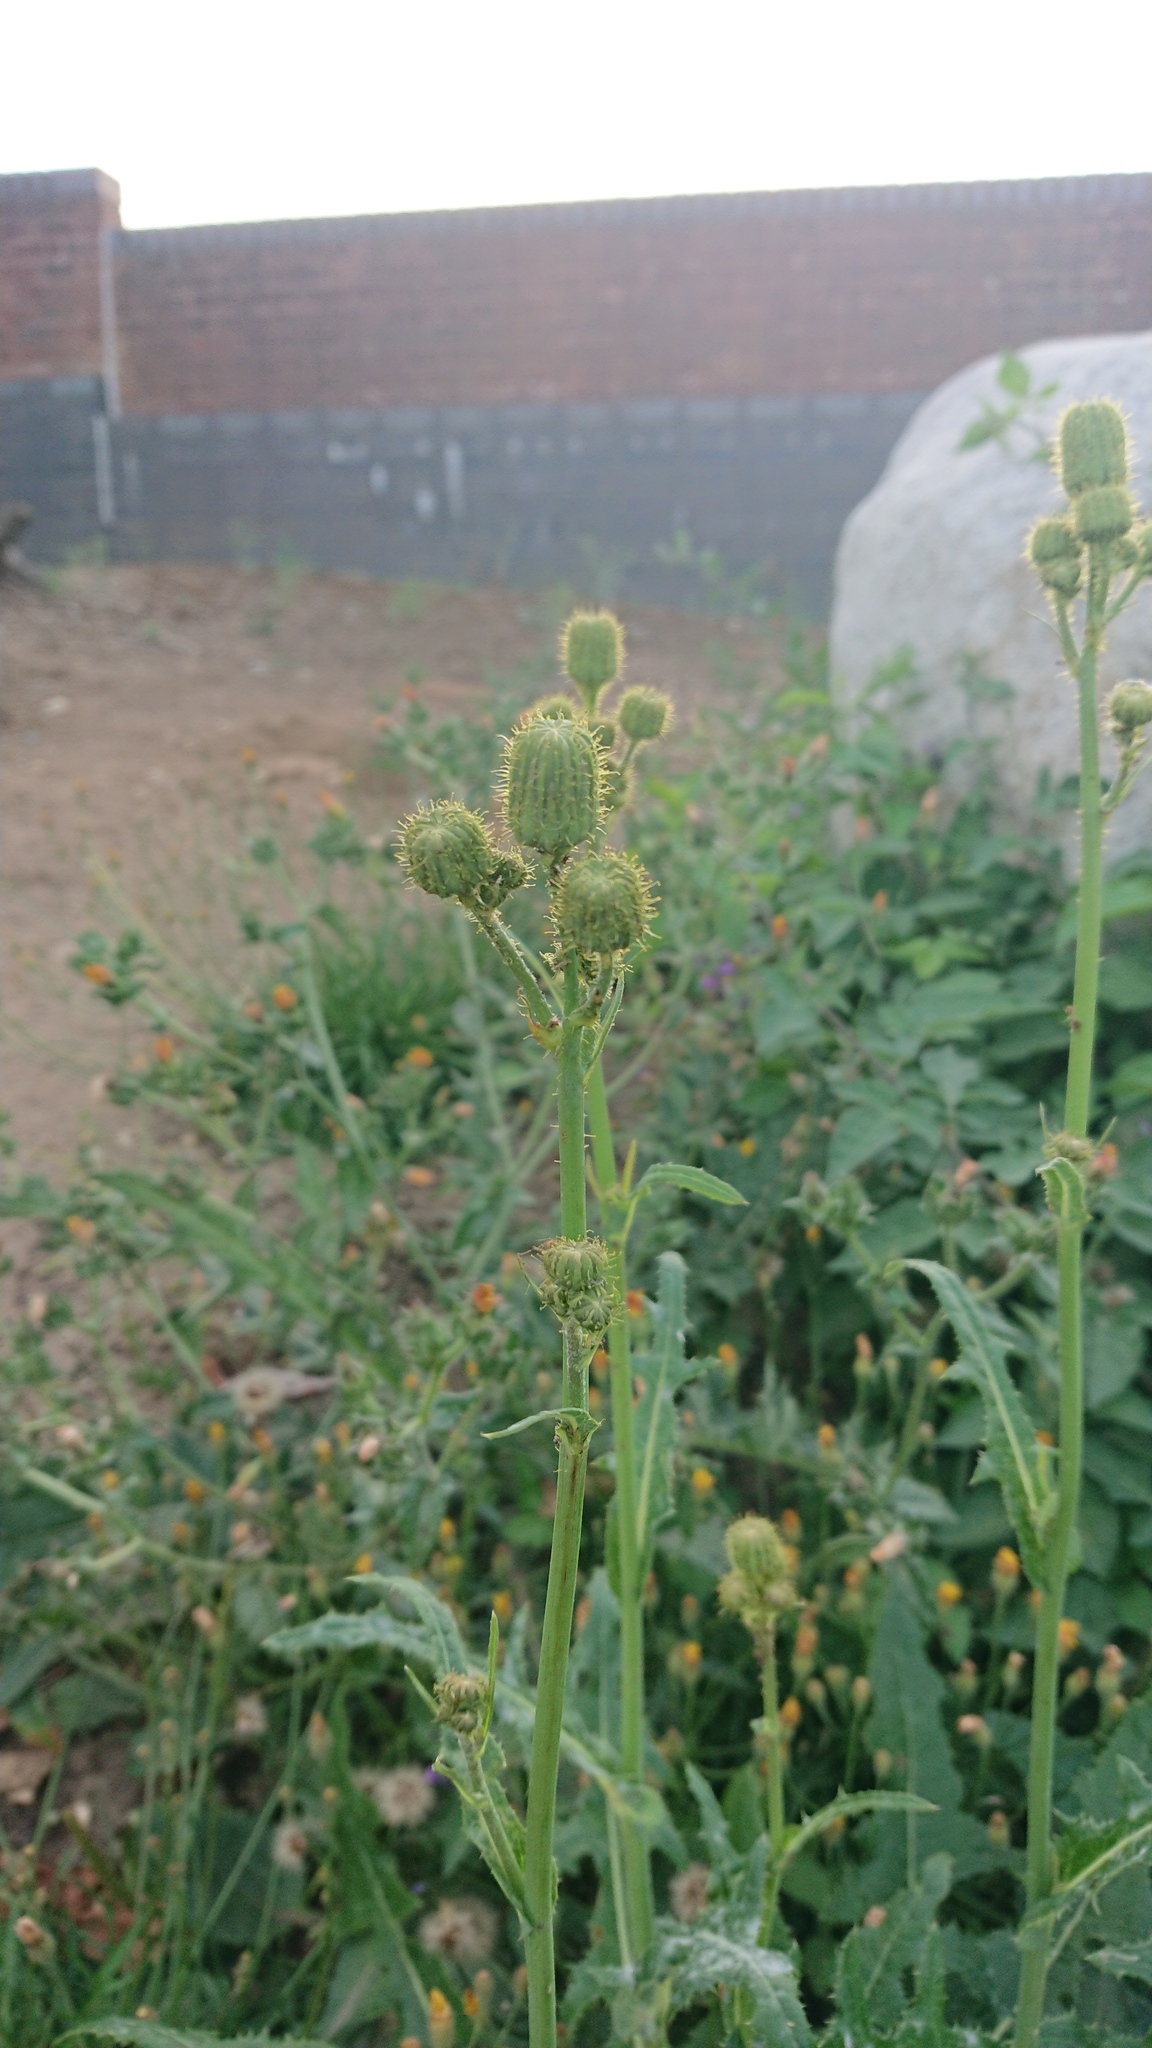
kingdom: Plantae
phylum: Tracheophyta
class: Magnoliopsida
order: Asterales
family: Asteraceae
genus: Sonchus
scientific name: Sonchus arvensis
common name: Perennial sow-thistle
